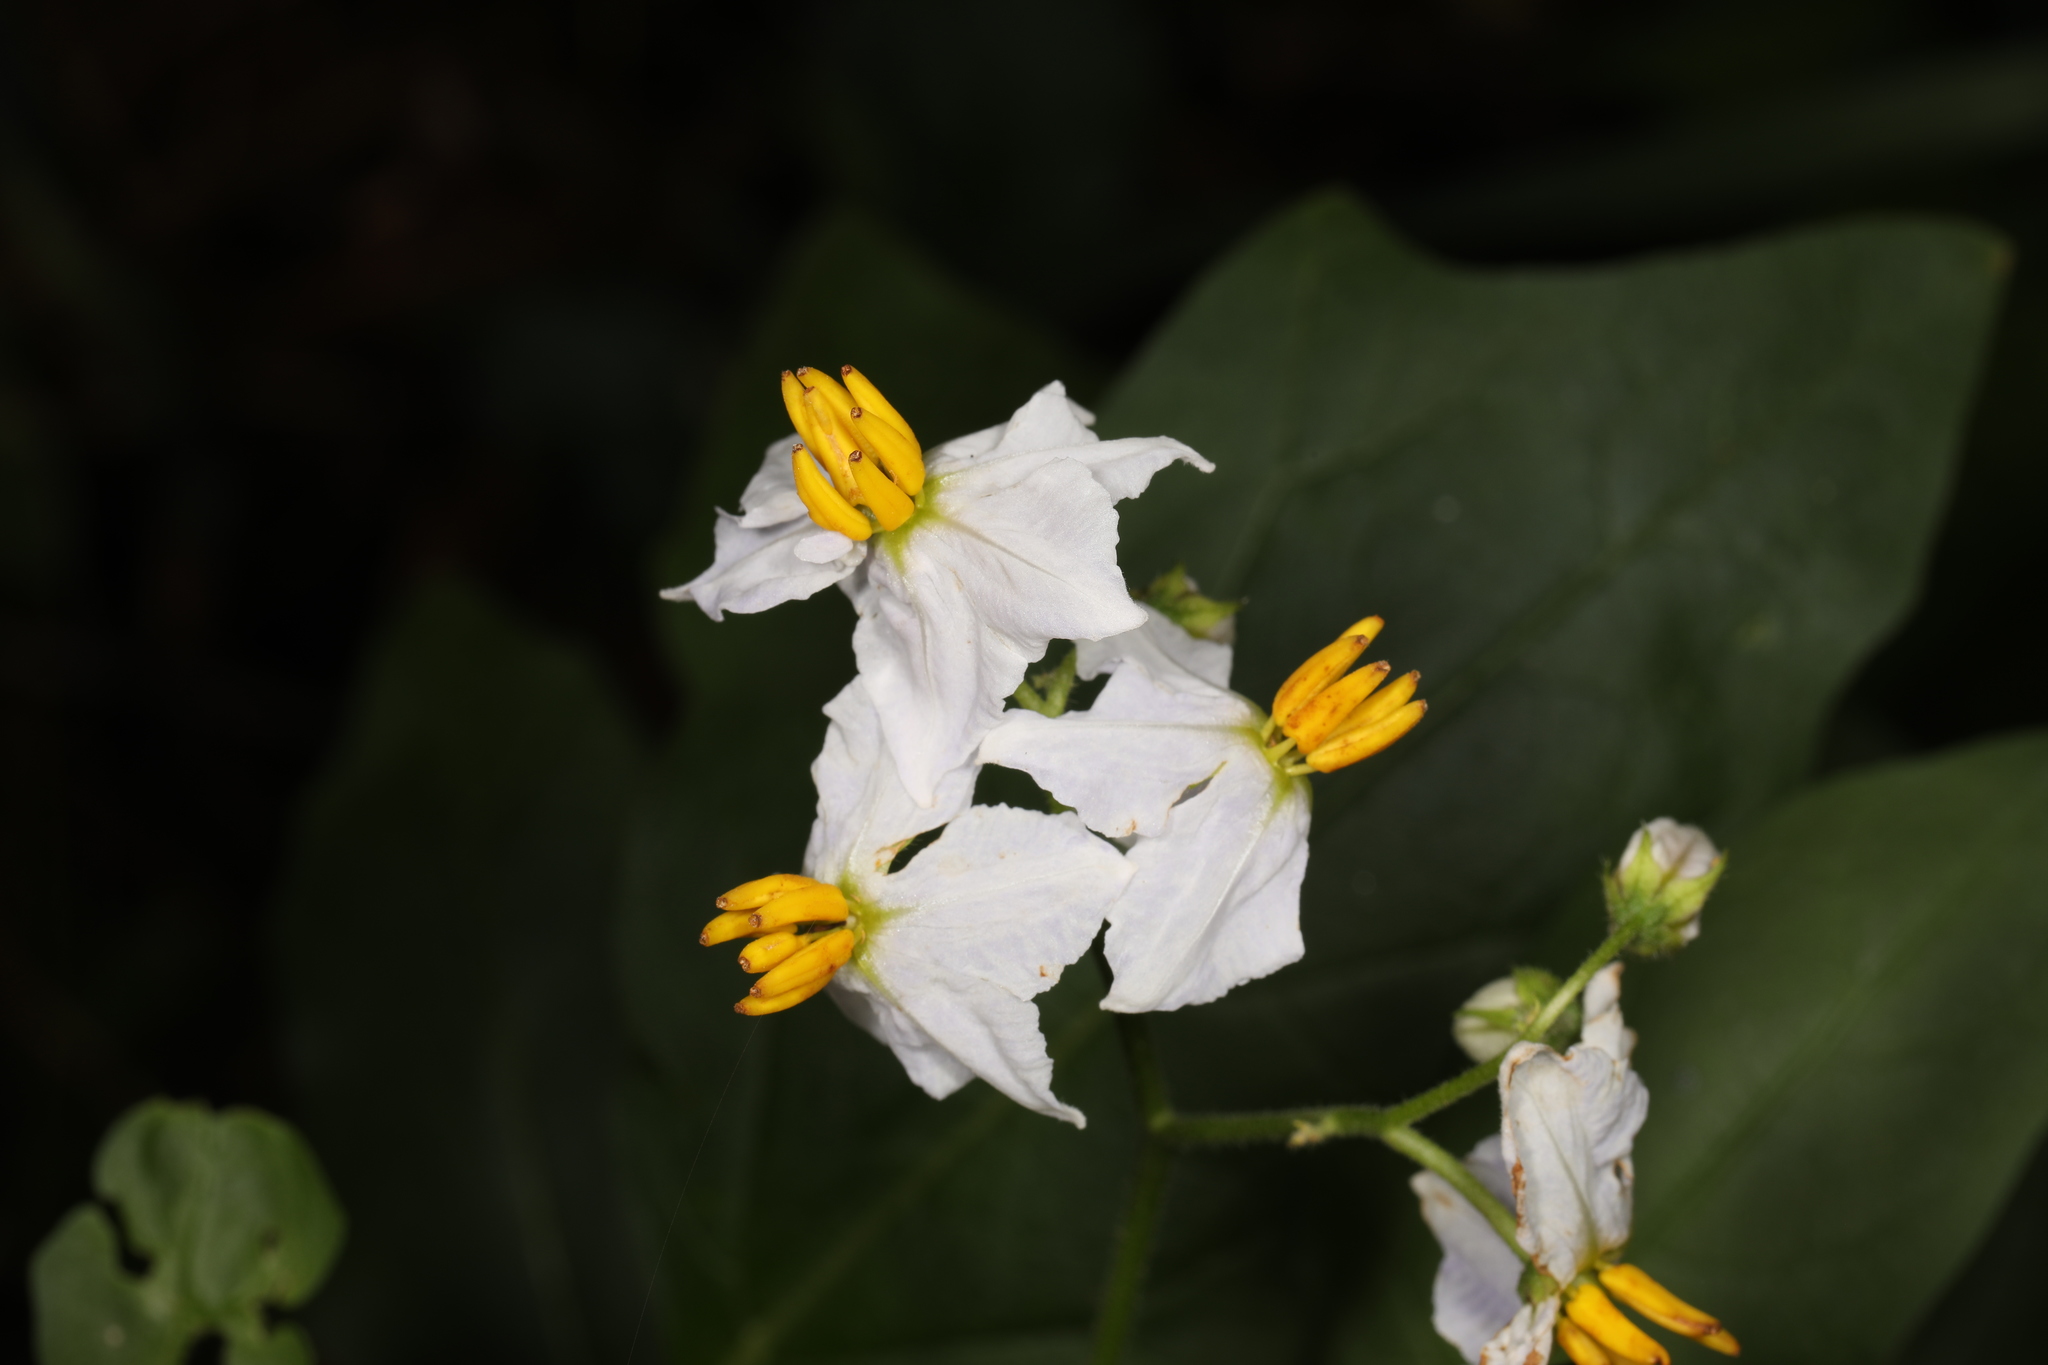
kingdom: Plantae
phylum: Tracheophyta
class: Magnoliopsida
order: Solanales
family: Solanaceae
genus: Solanum
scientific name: Solanum carolinense
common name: Horse-nettle
